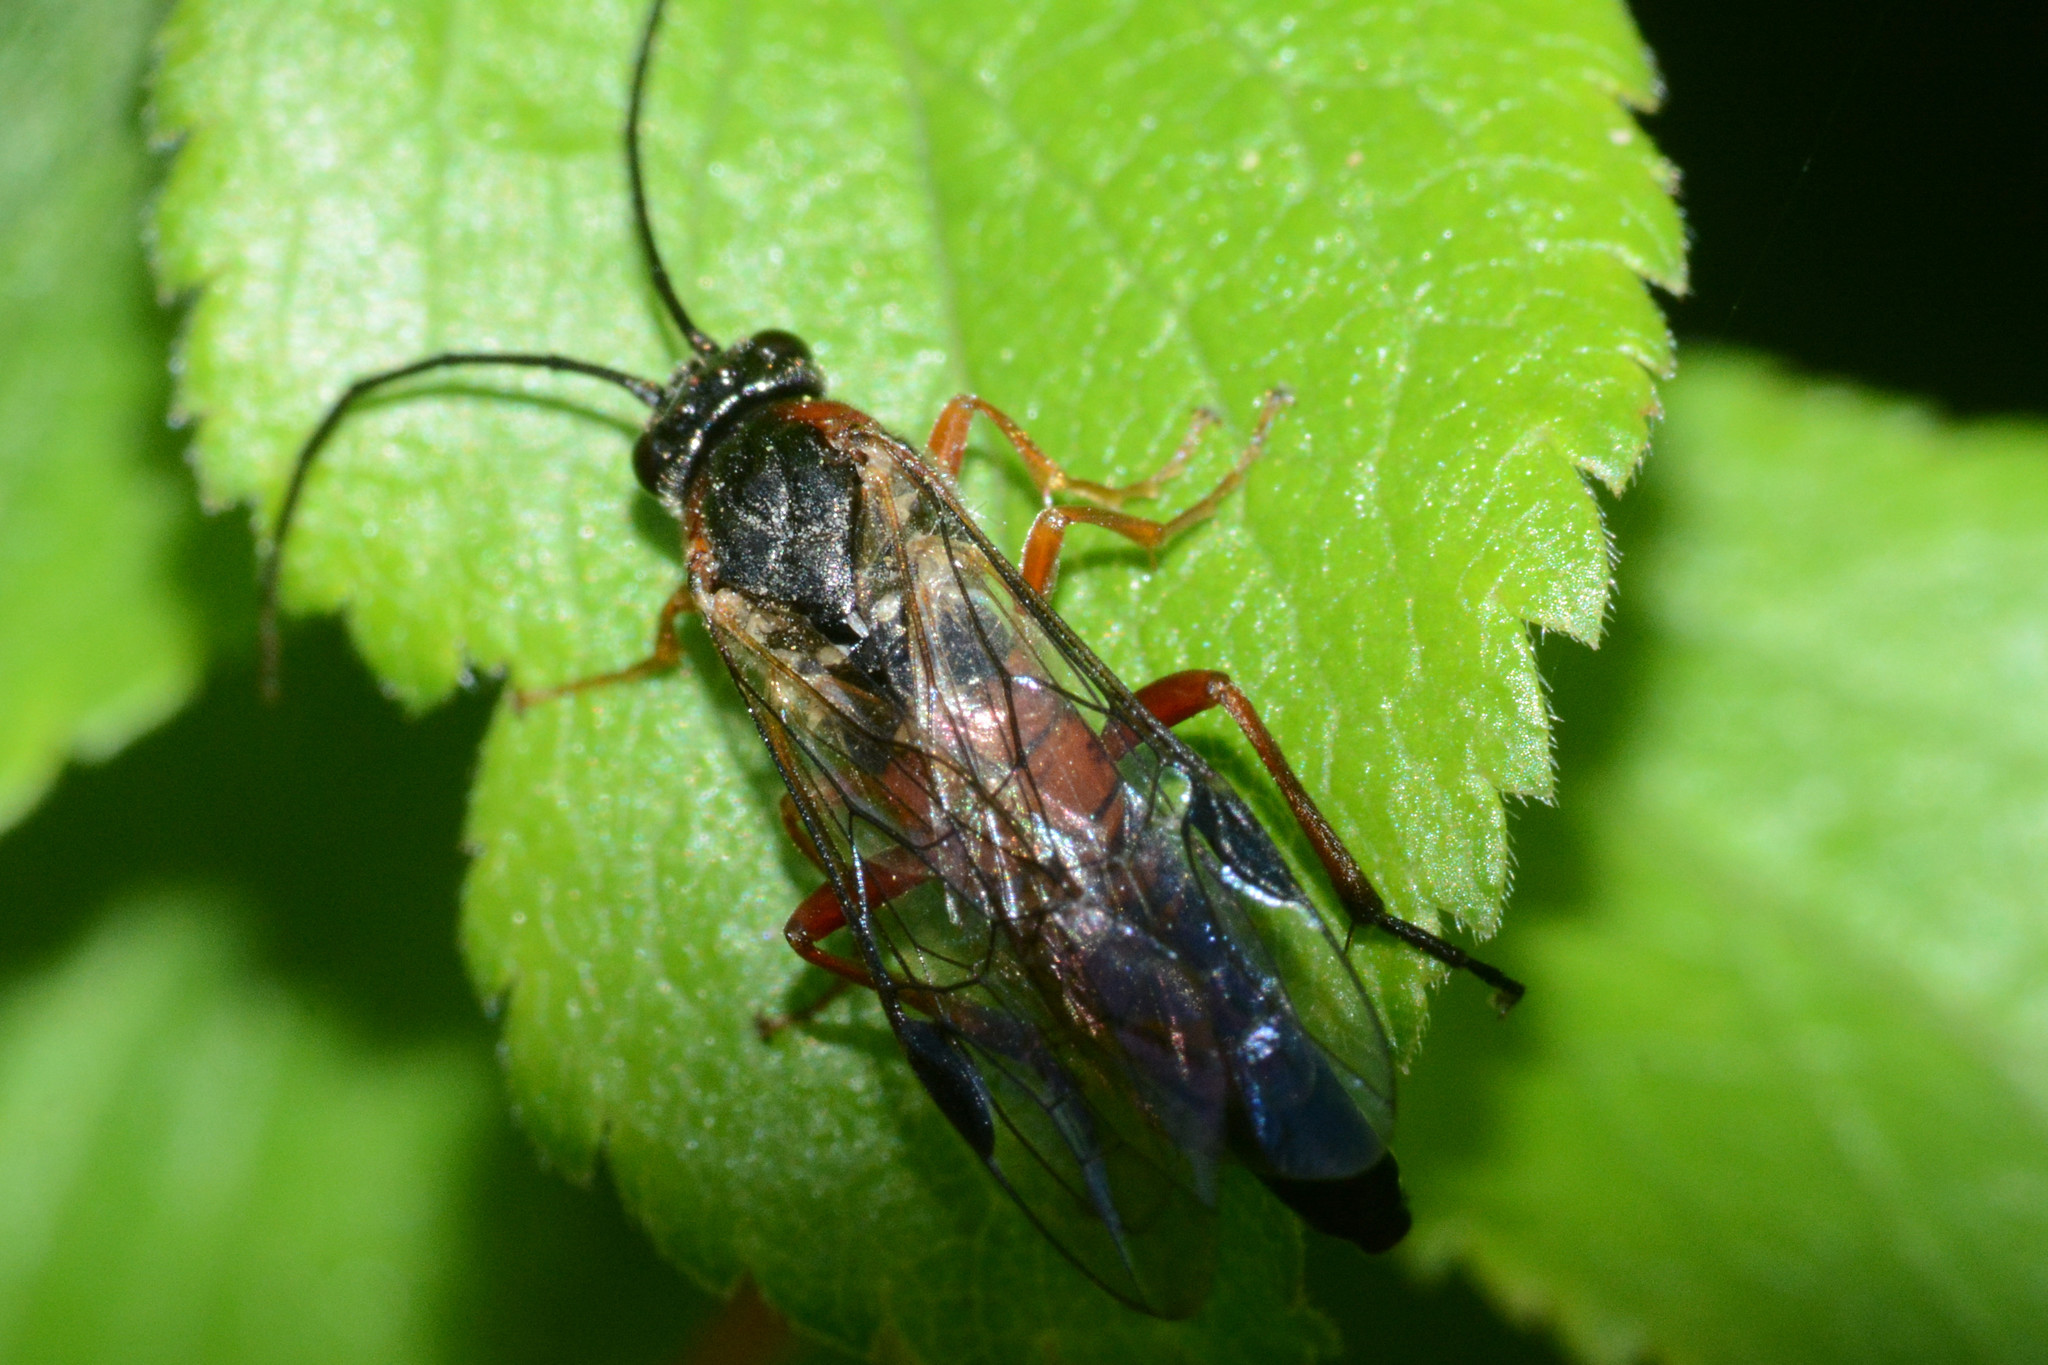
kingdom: Animalia
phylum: Arthropoda
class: Insecta
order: Hymenoptera
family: Tenthredinidae
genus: Nematus
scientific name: Nematus lucidus
